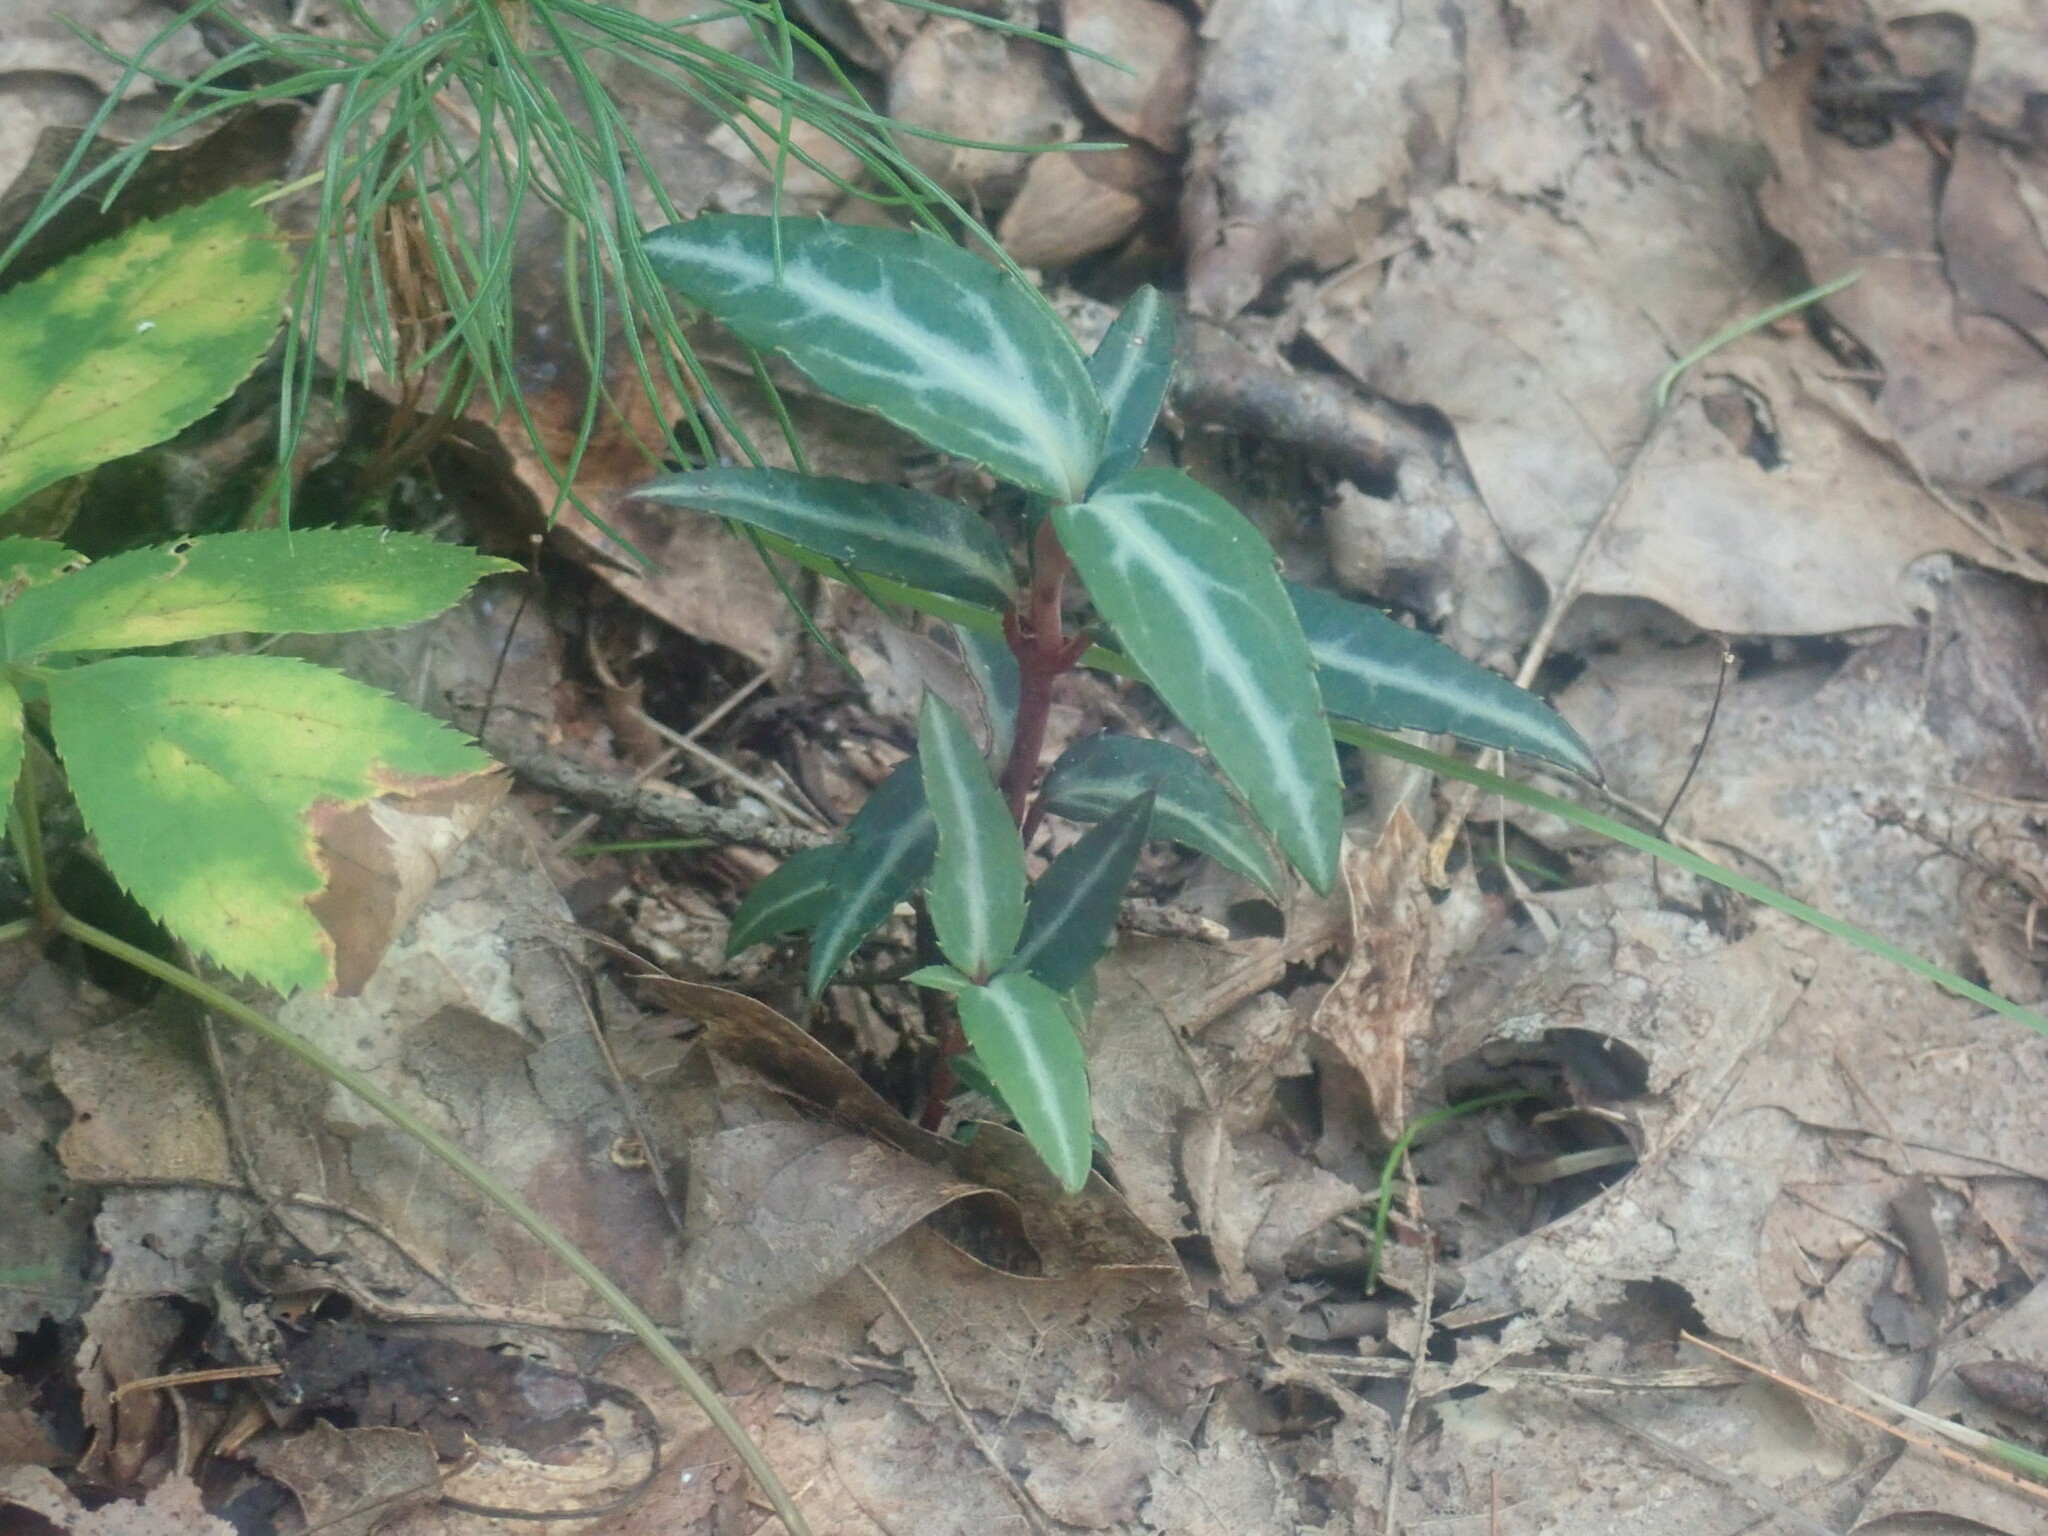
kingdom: Plantae
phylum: Tracheophyta
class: Magnoliopsida
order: Ericales
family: Ericaceae
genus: Chimaphila
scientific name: Chimaphila maculata
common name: Spotted pipsissewa
